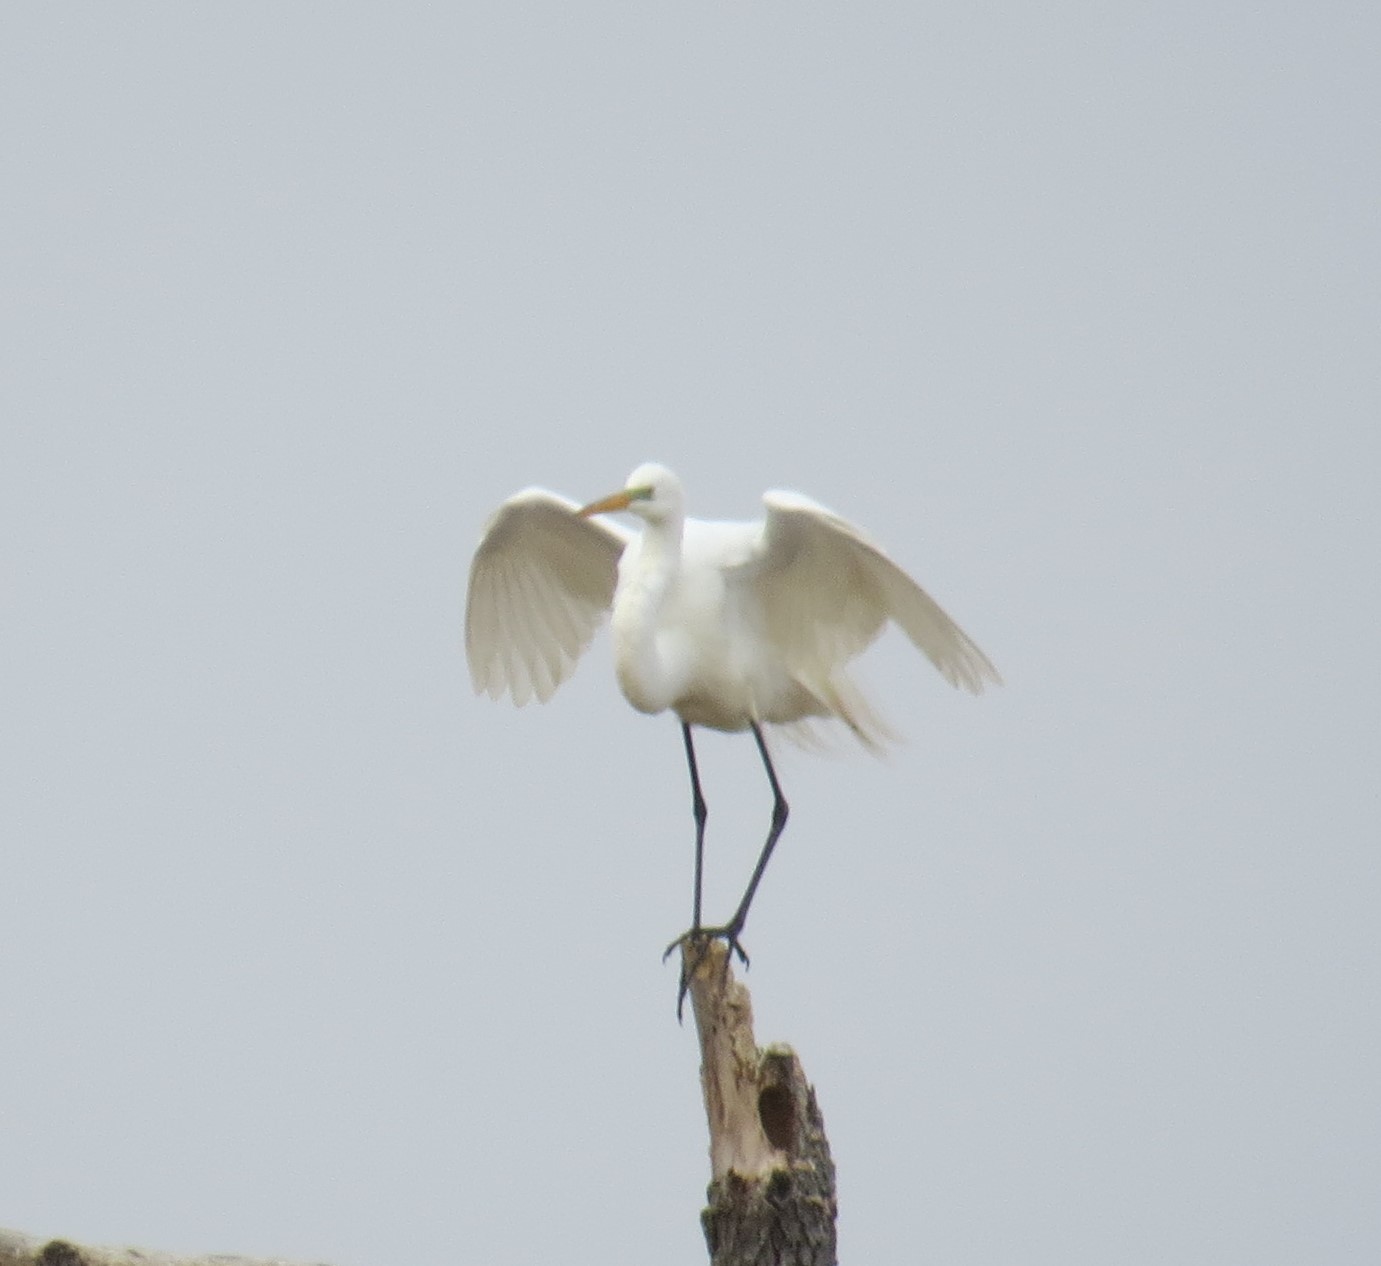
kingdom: Animalia
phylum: Chordata
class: Aves
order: Pelecaniformes
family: Ardeidae
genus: Ardea
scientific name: Ardea alba
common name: Great egret
